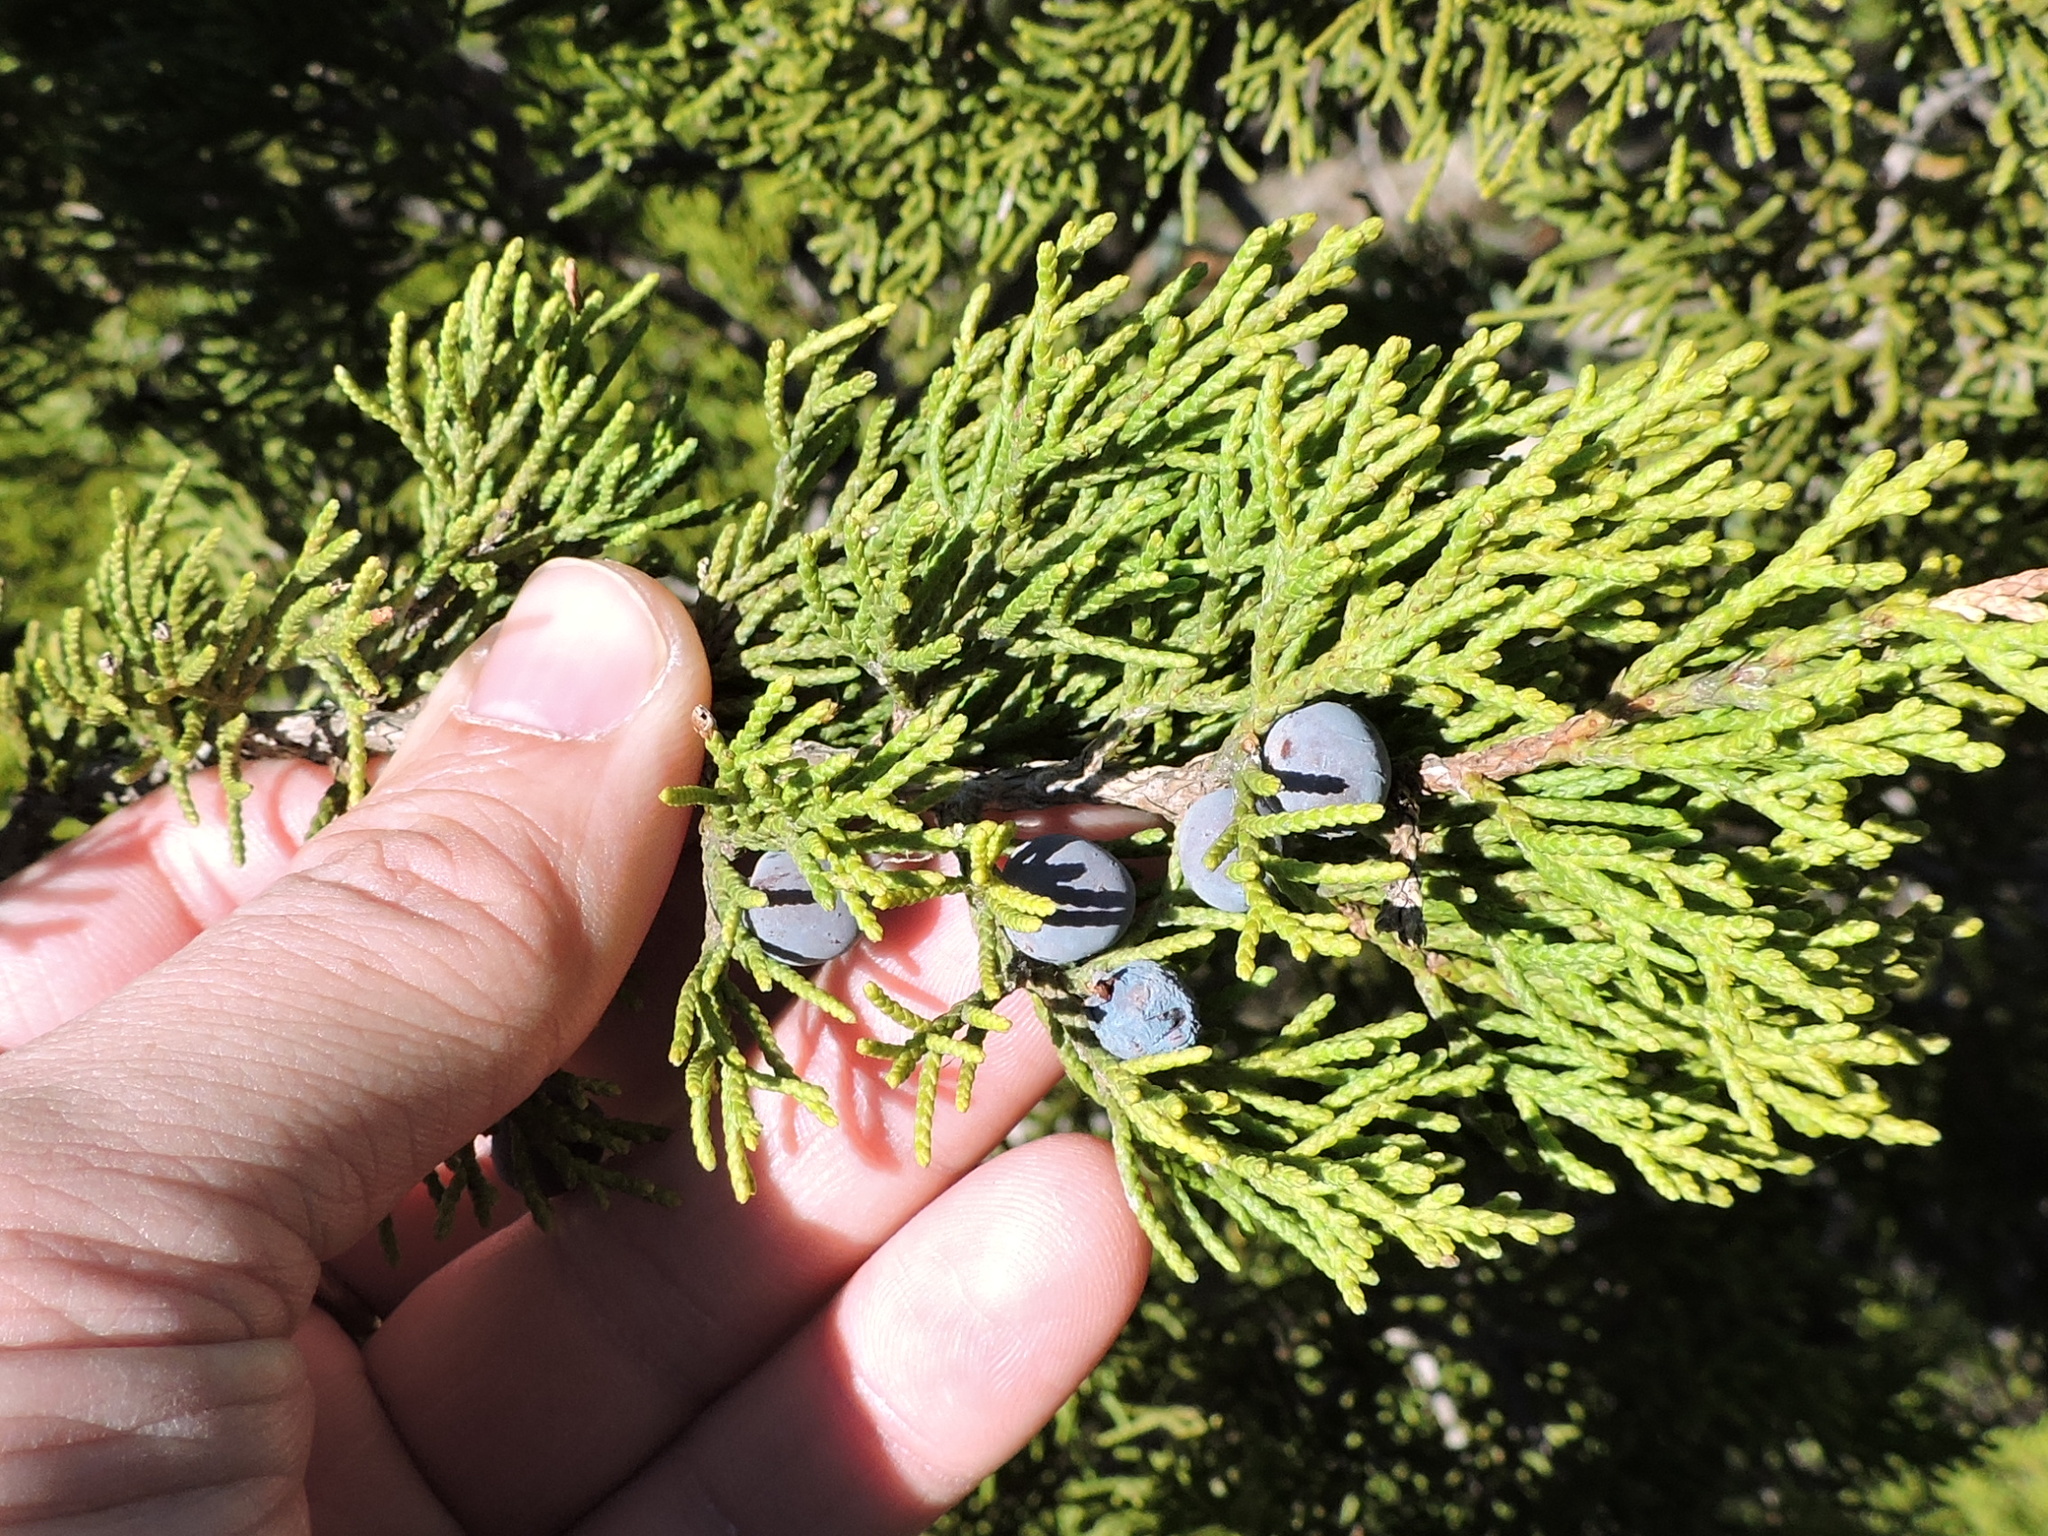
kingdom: Plantae
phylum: Tracheophyta
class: Pinopsida
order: Pinales
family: Cupressaceae
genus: Juniperus
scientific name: Juniperus ashei
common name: Mexican juniper
